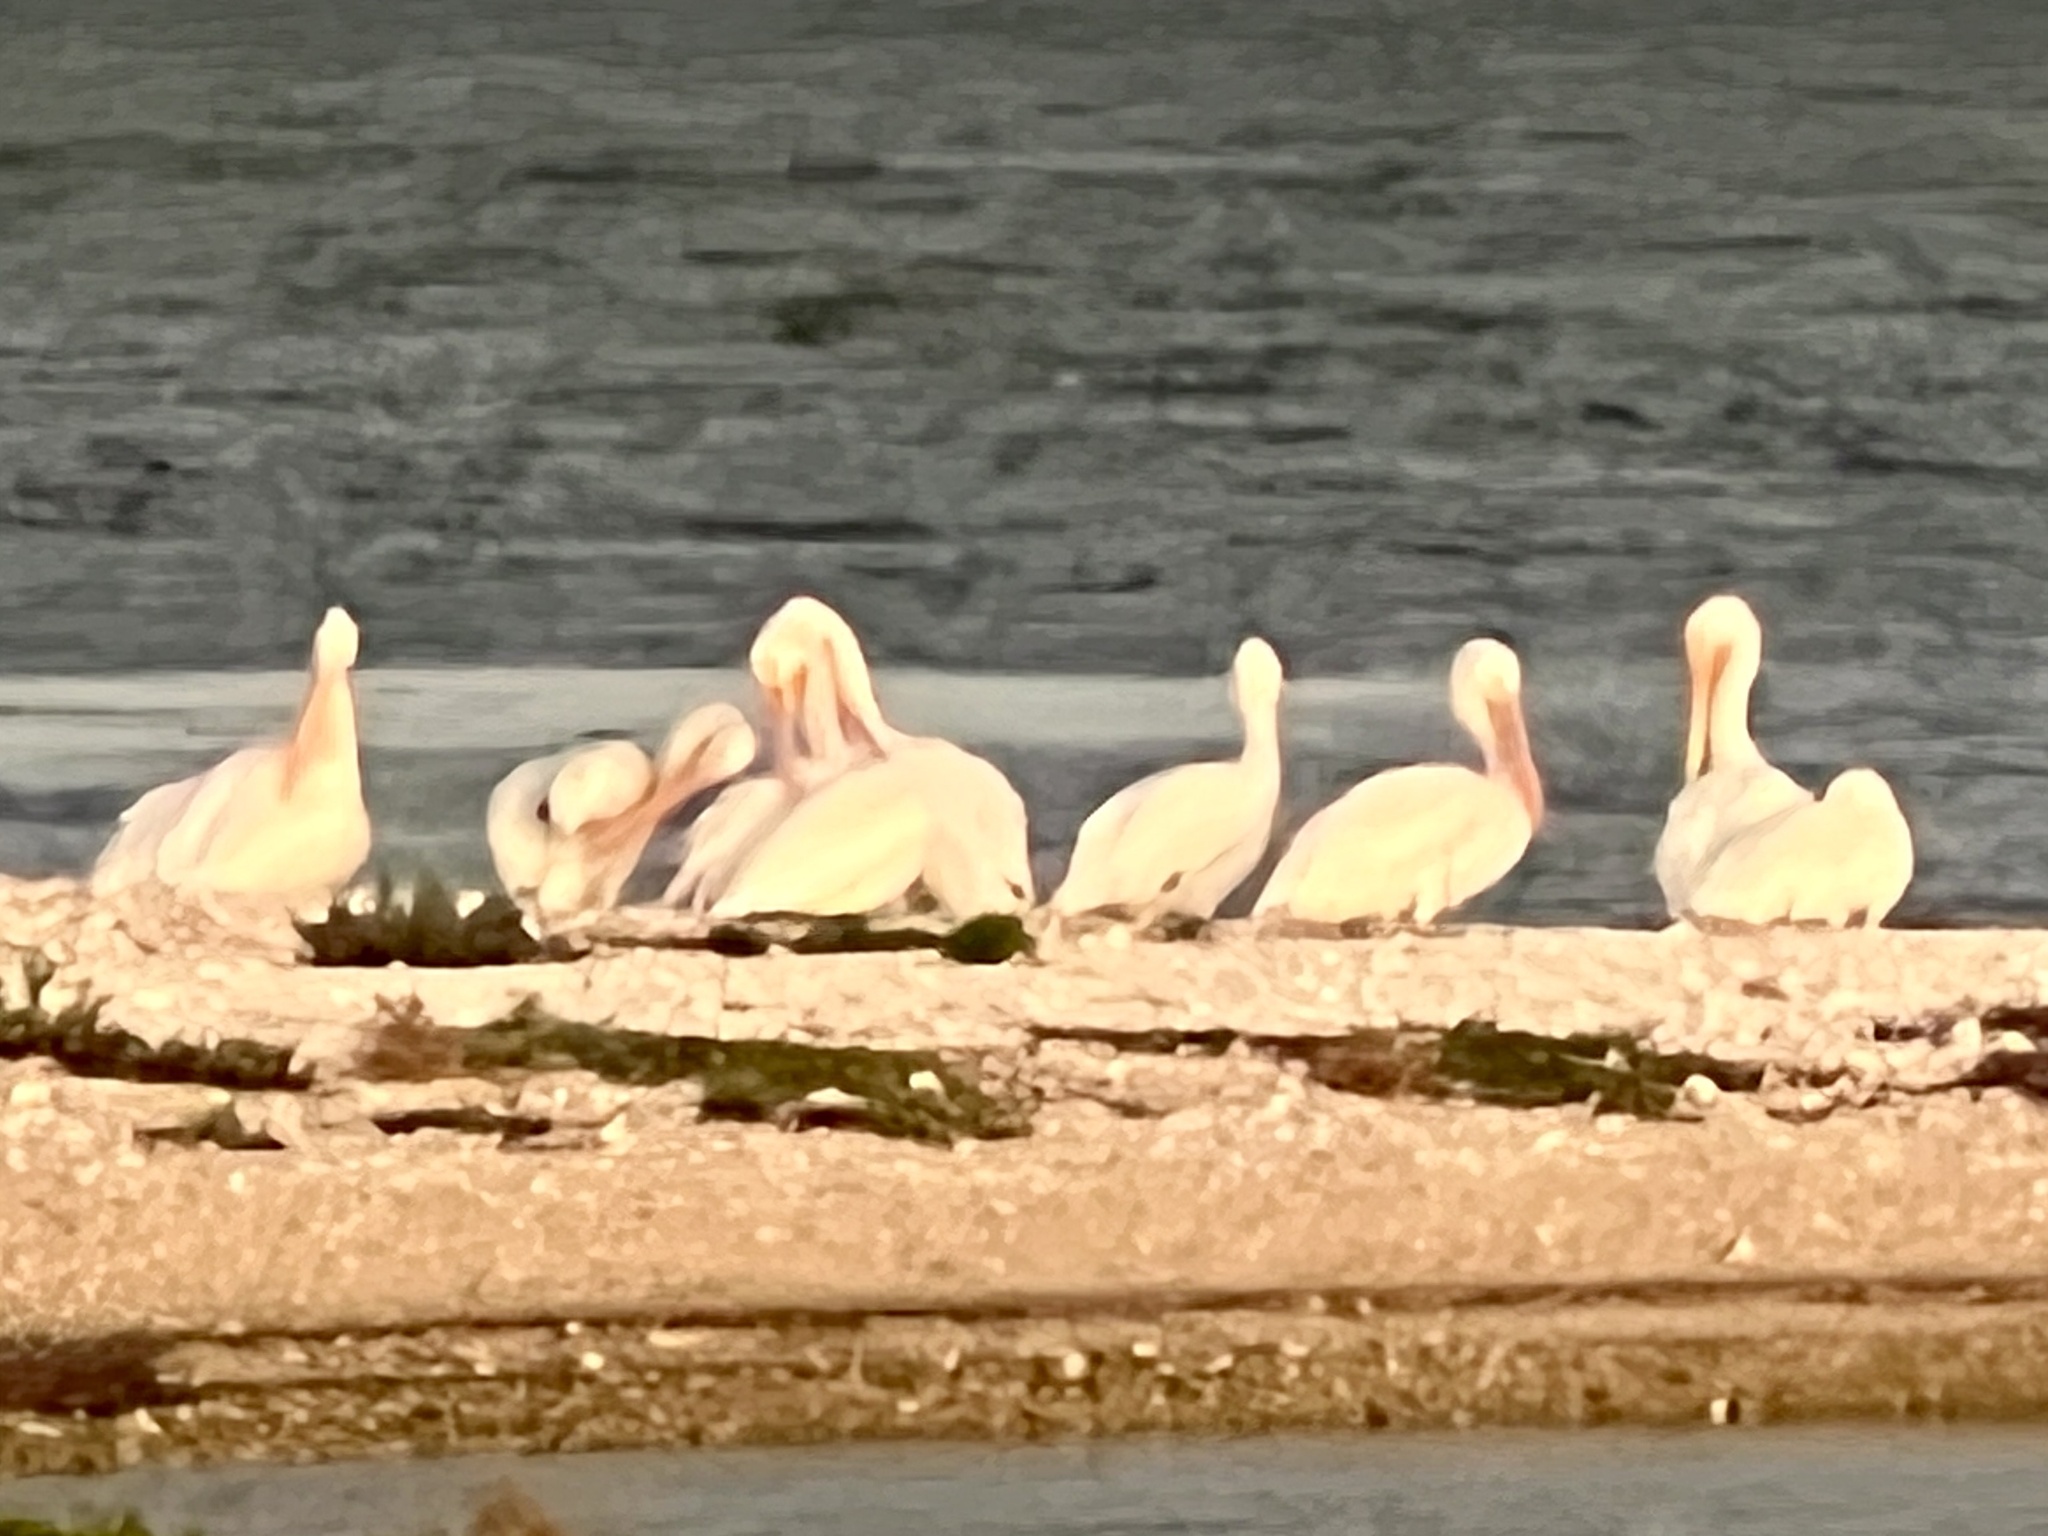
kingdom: Animalia
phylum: Chordata
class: Aves
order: Pelecaniformes
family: Pelecanidae
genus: Pelecanus
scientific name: Pelecanus erythrorhynchos
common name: American white pelican
